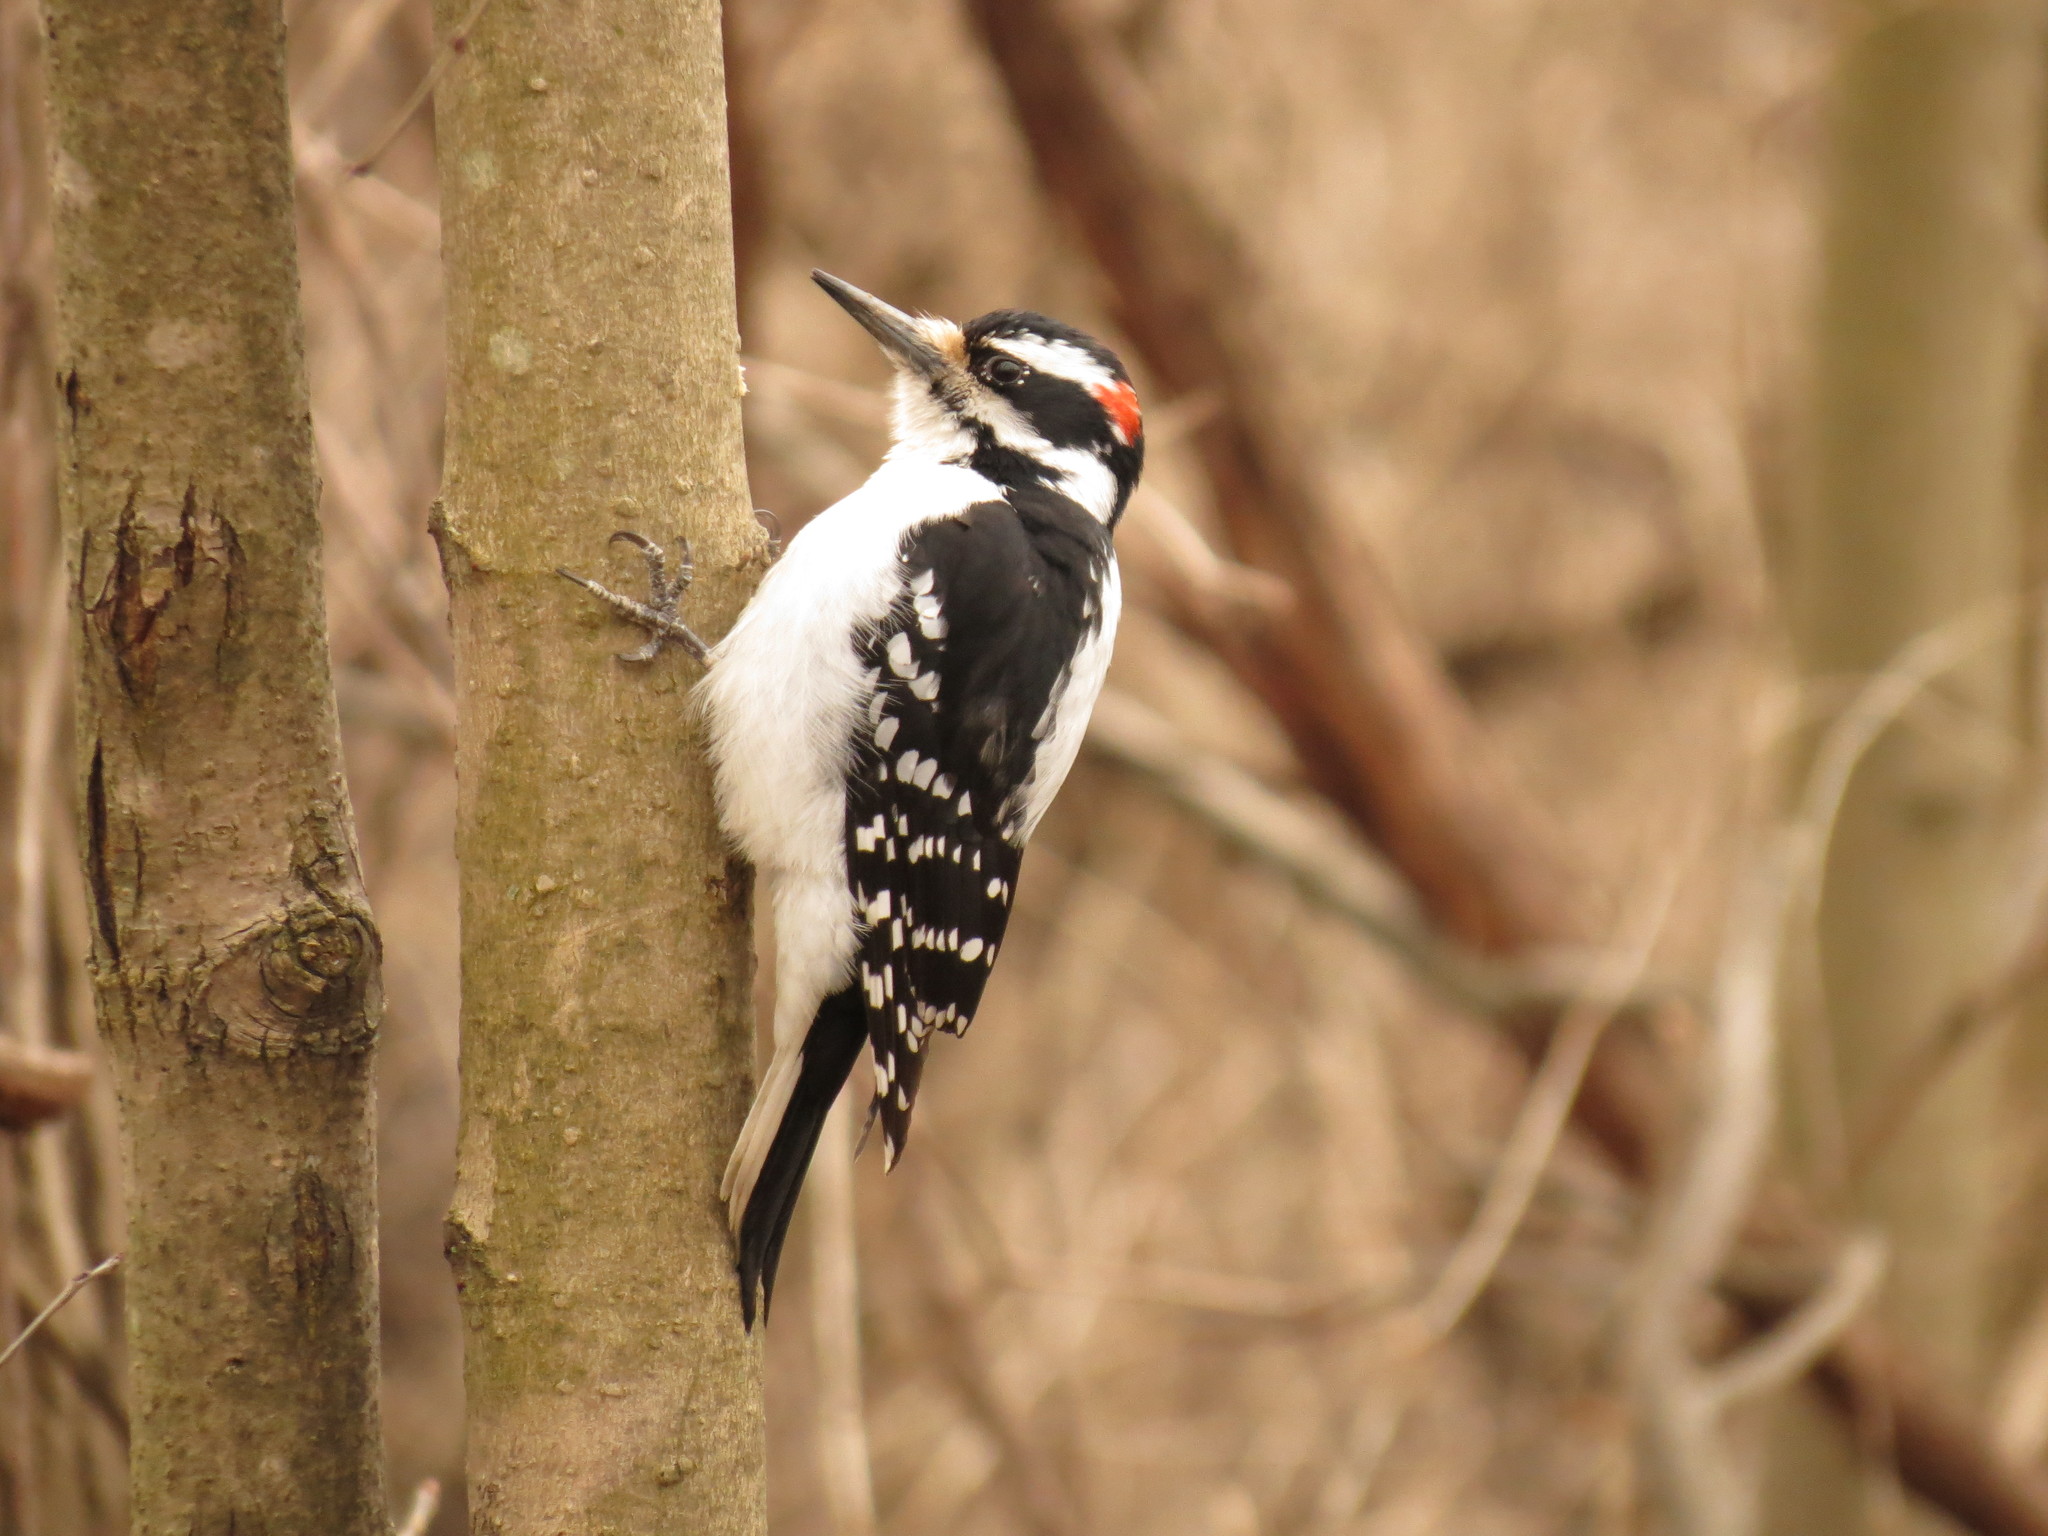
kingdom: Animalia
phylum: Chordata
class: Aves
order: Piciformes
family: Picidae
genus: Leuconotopicus
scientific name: Leuconotopicus villosus
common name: Hairy woodpecker
